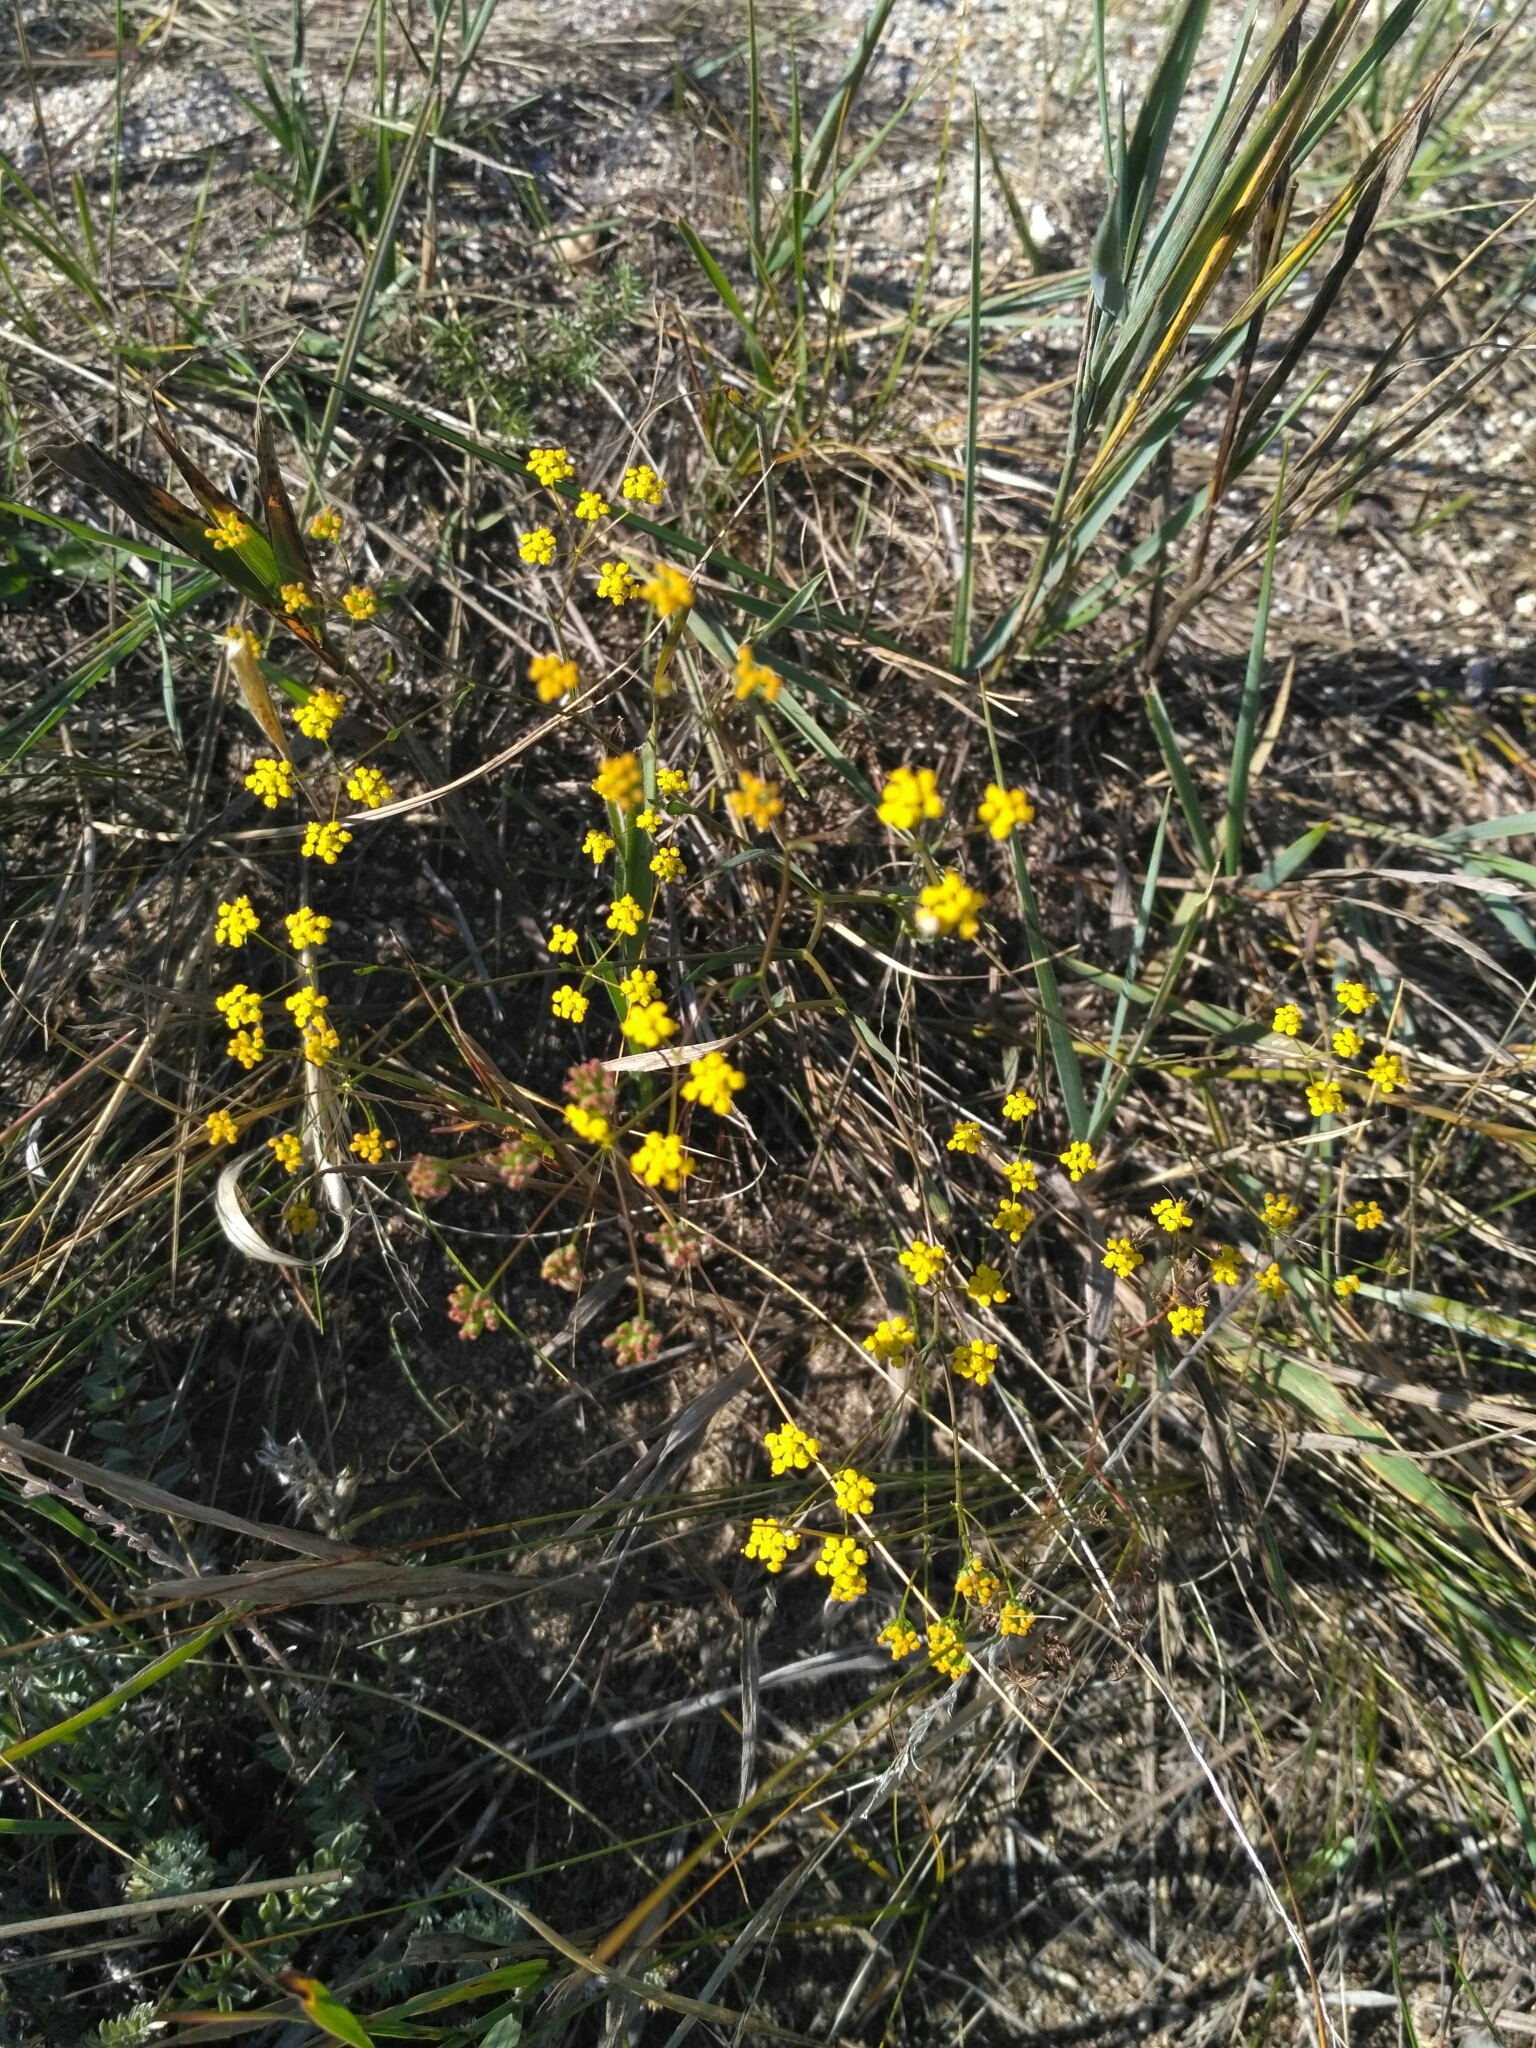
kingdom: Plantae
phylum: Tracheophyta
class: Magnoliopsida
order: Apiales
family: Apiaceae
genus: Bupleurum
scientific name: Bupleurum scorzonerifolium
